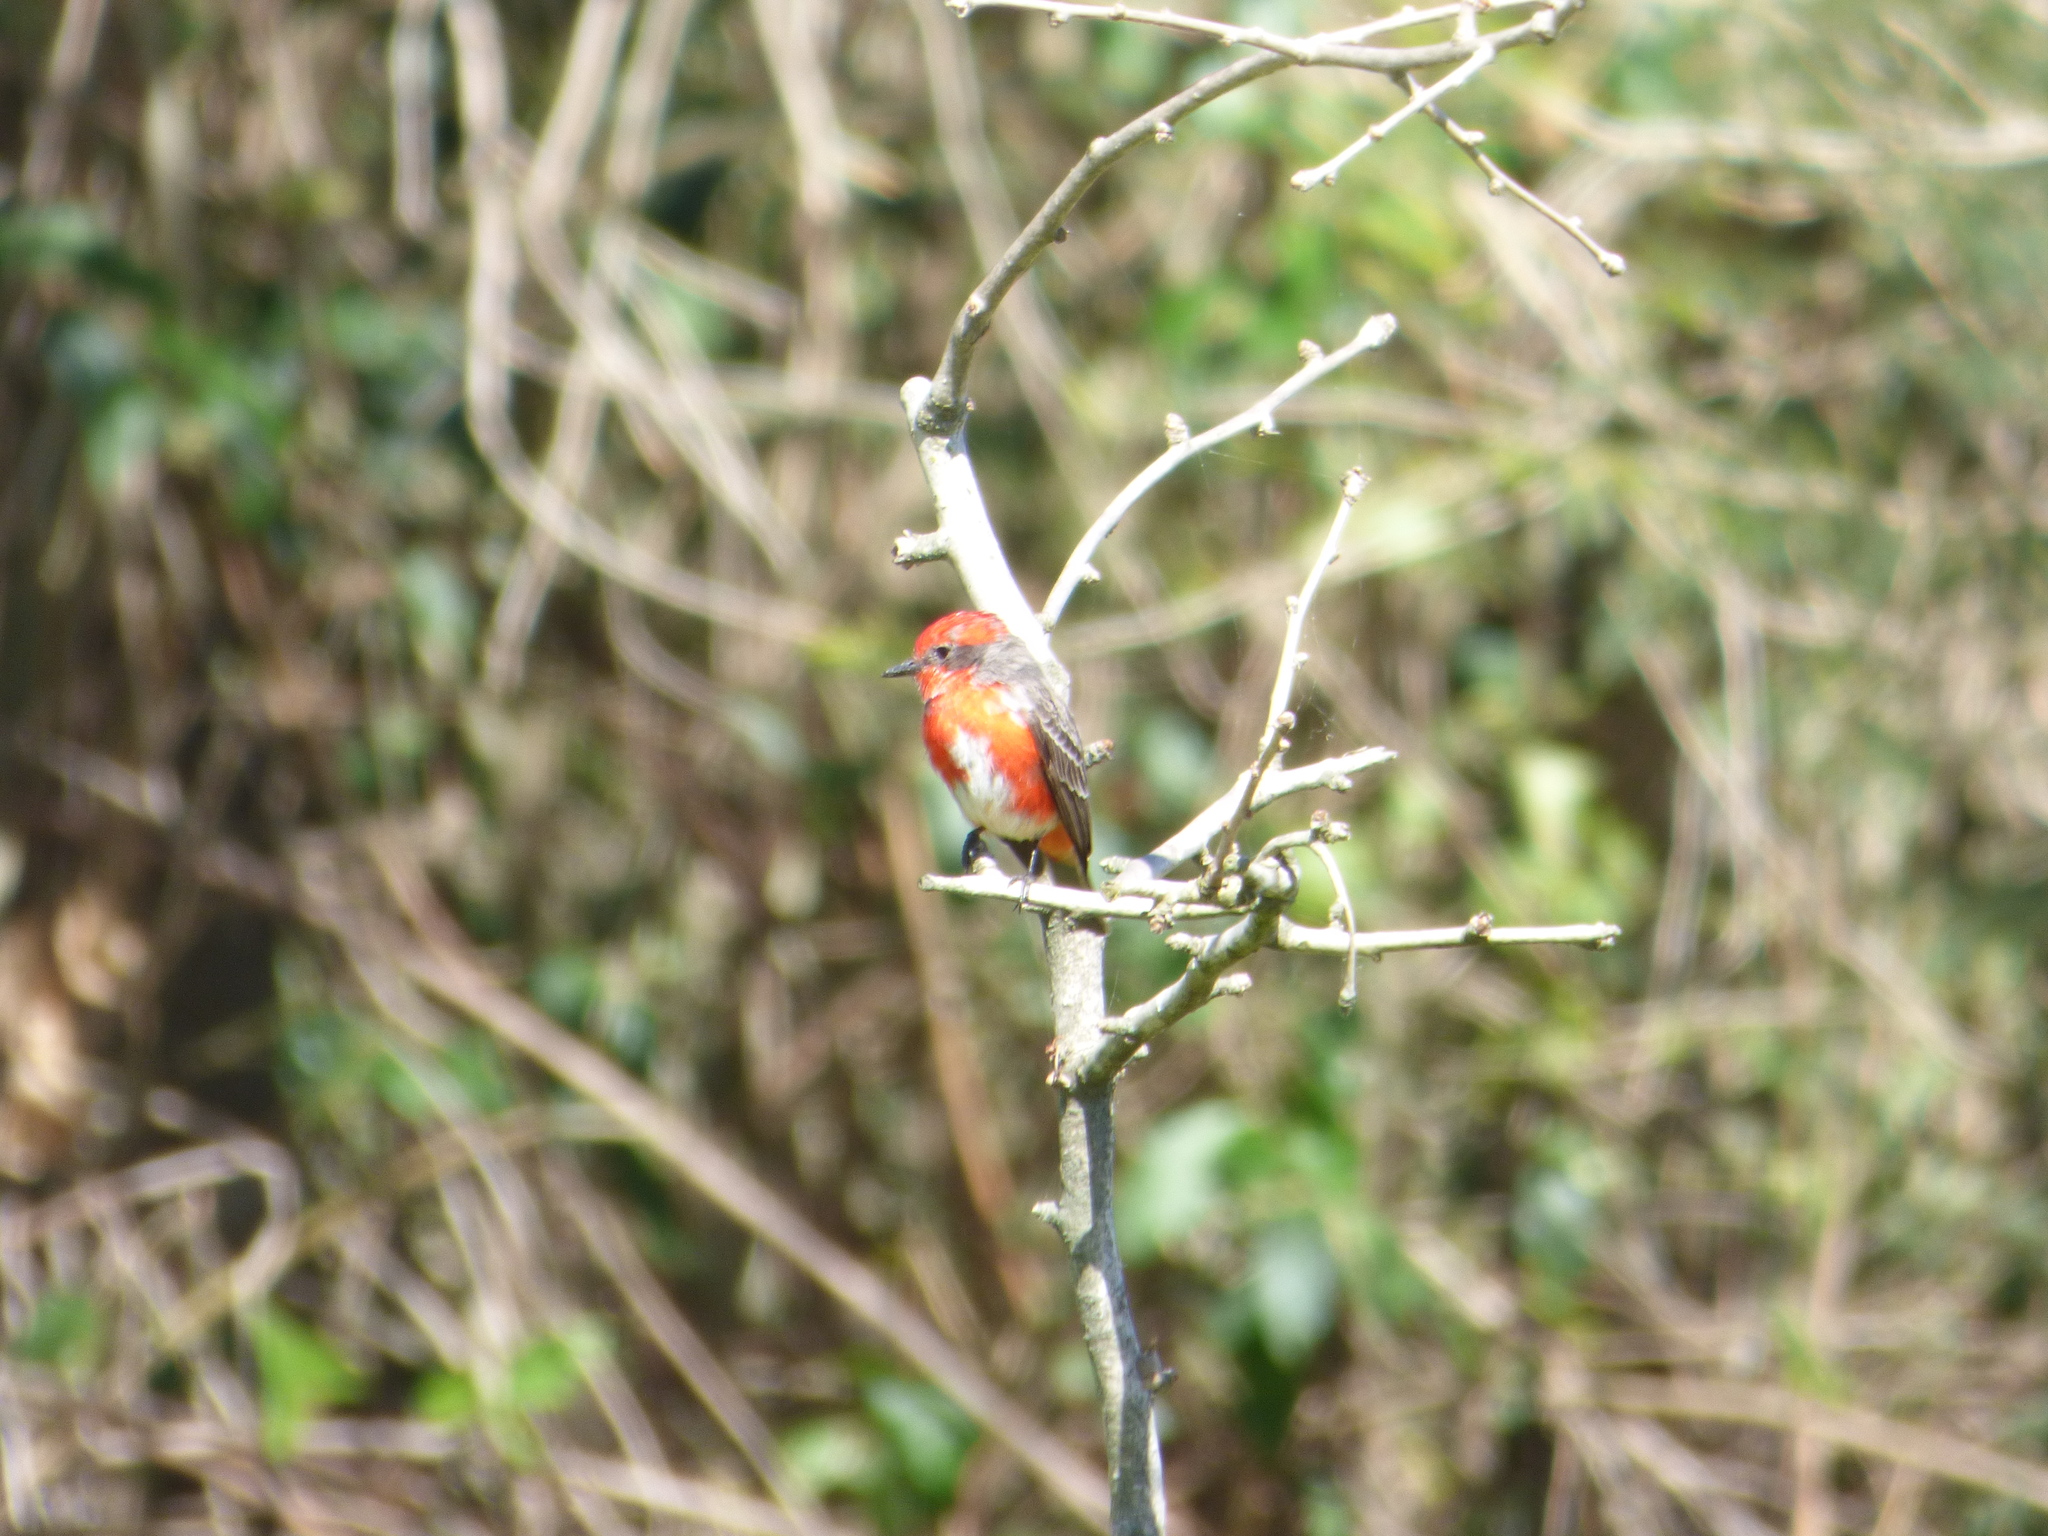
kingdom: Animalia
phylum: Chordata
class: Aves
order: Passeriformes
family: Tyrannidae
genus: Pyrocephalus
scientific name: Pyrocephalus rubinus
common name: Vermilion flycatcher
